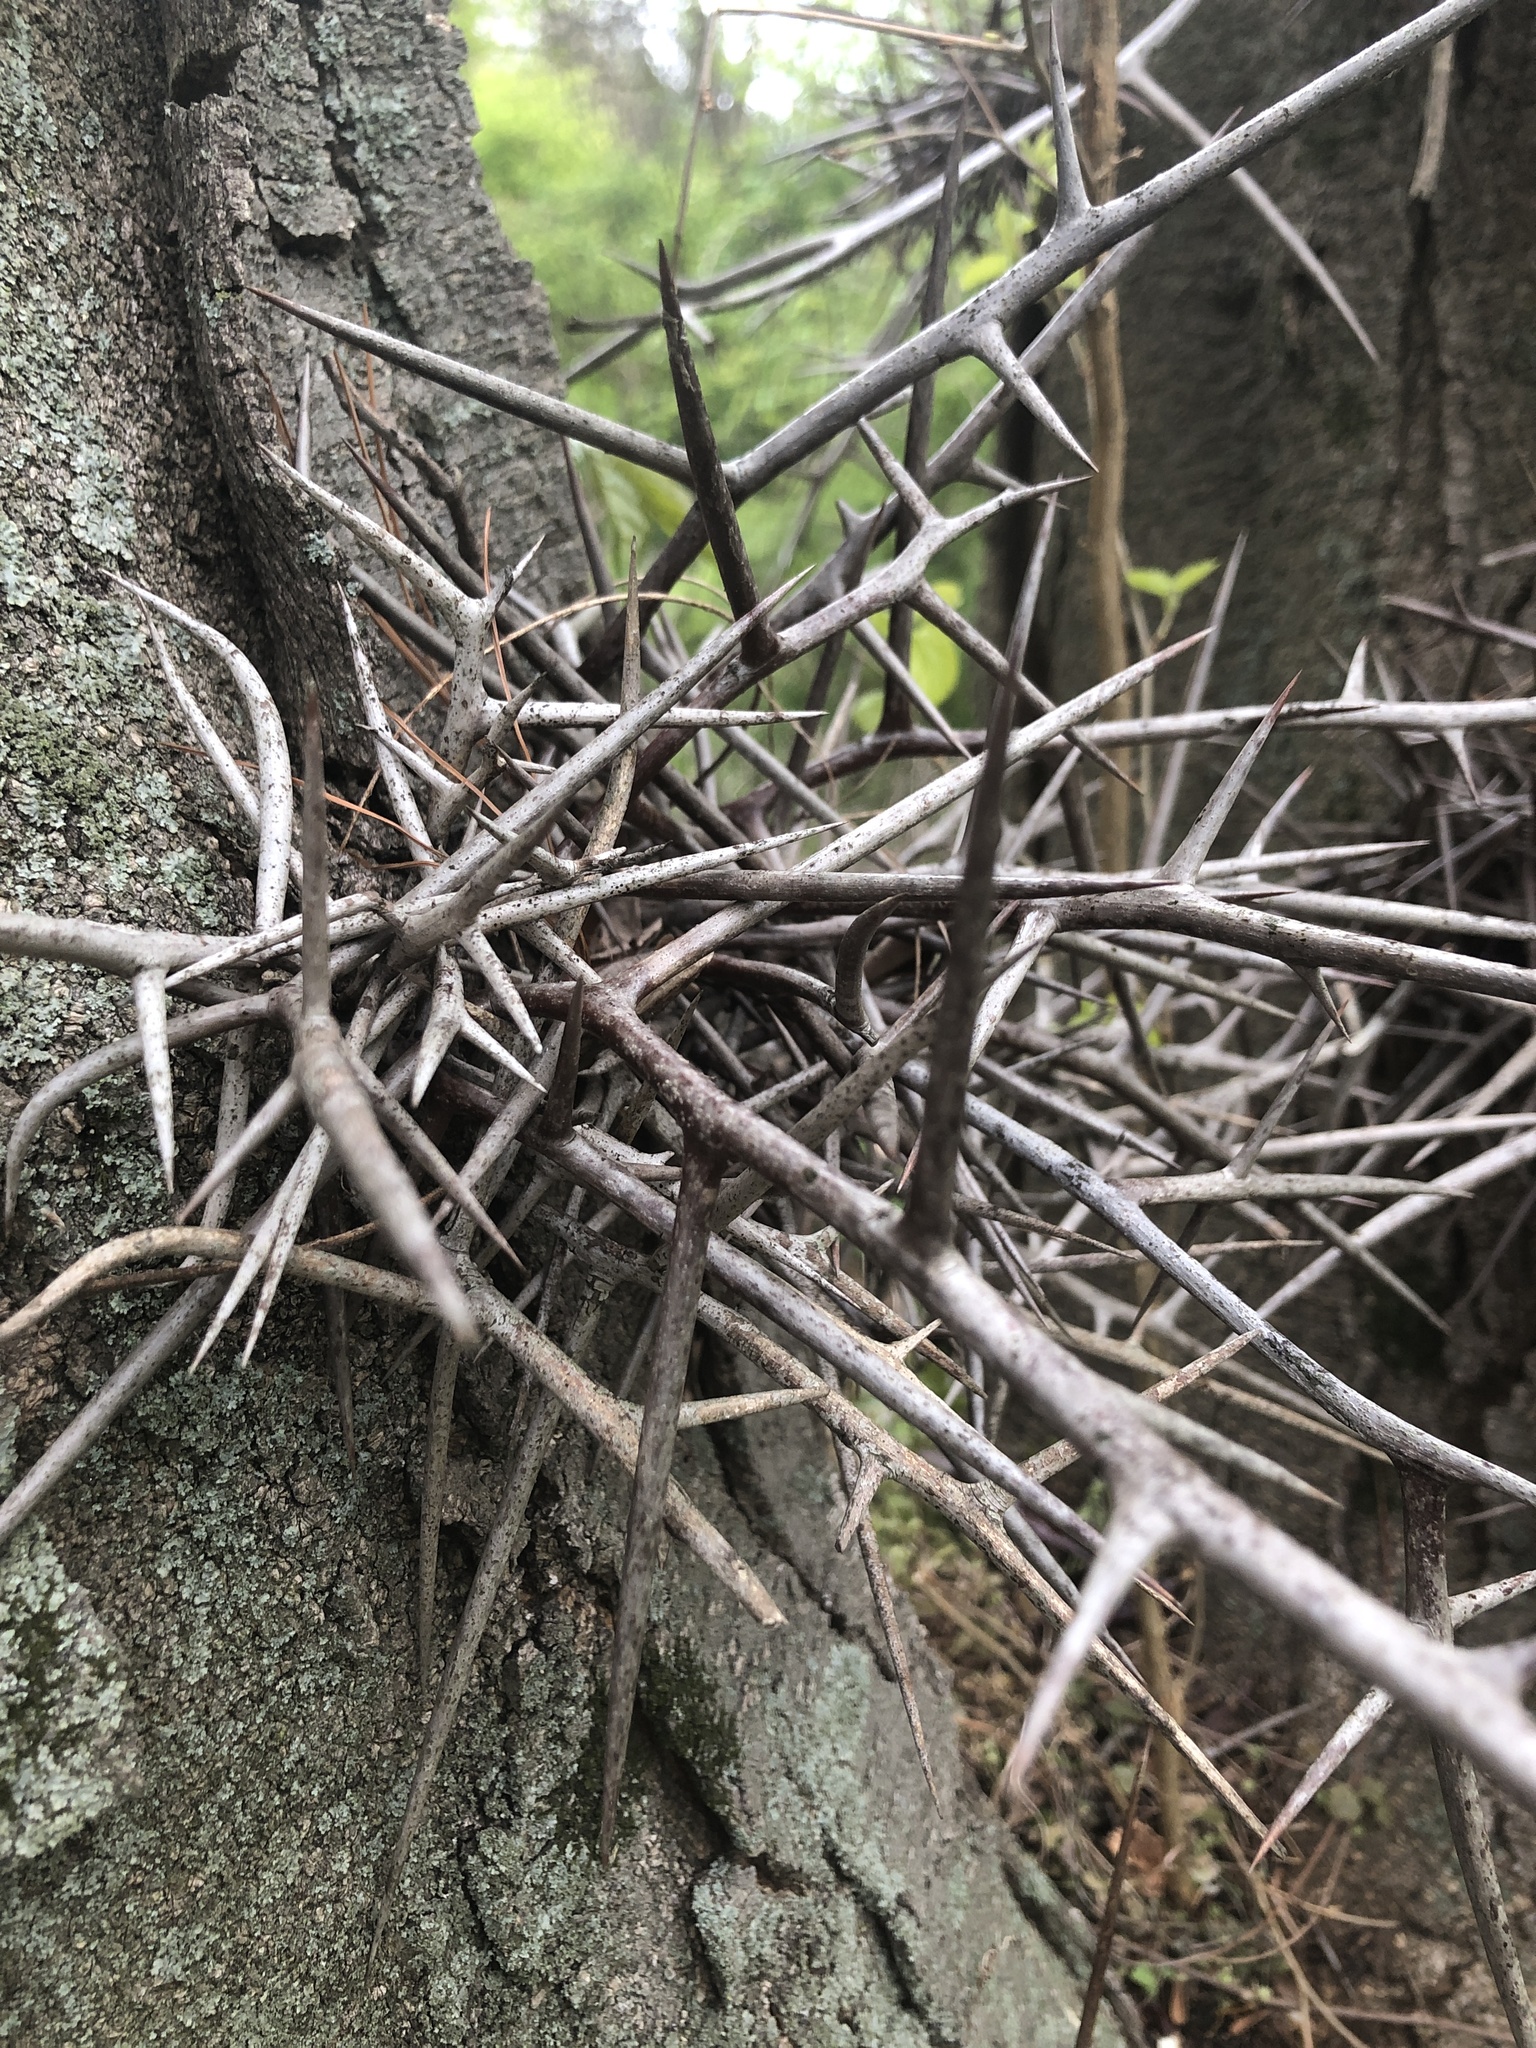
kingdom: Plantae
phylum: Tracheophyta
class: Magnoliopsida
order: Fabales
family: Fabaceae
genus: Gleditsia
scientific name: Gleditsia triacanthos
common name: Common honeylocust
